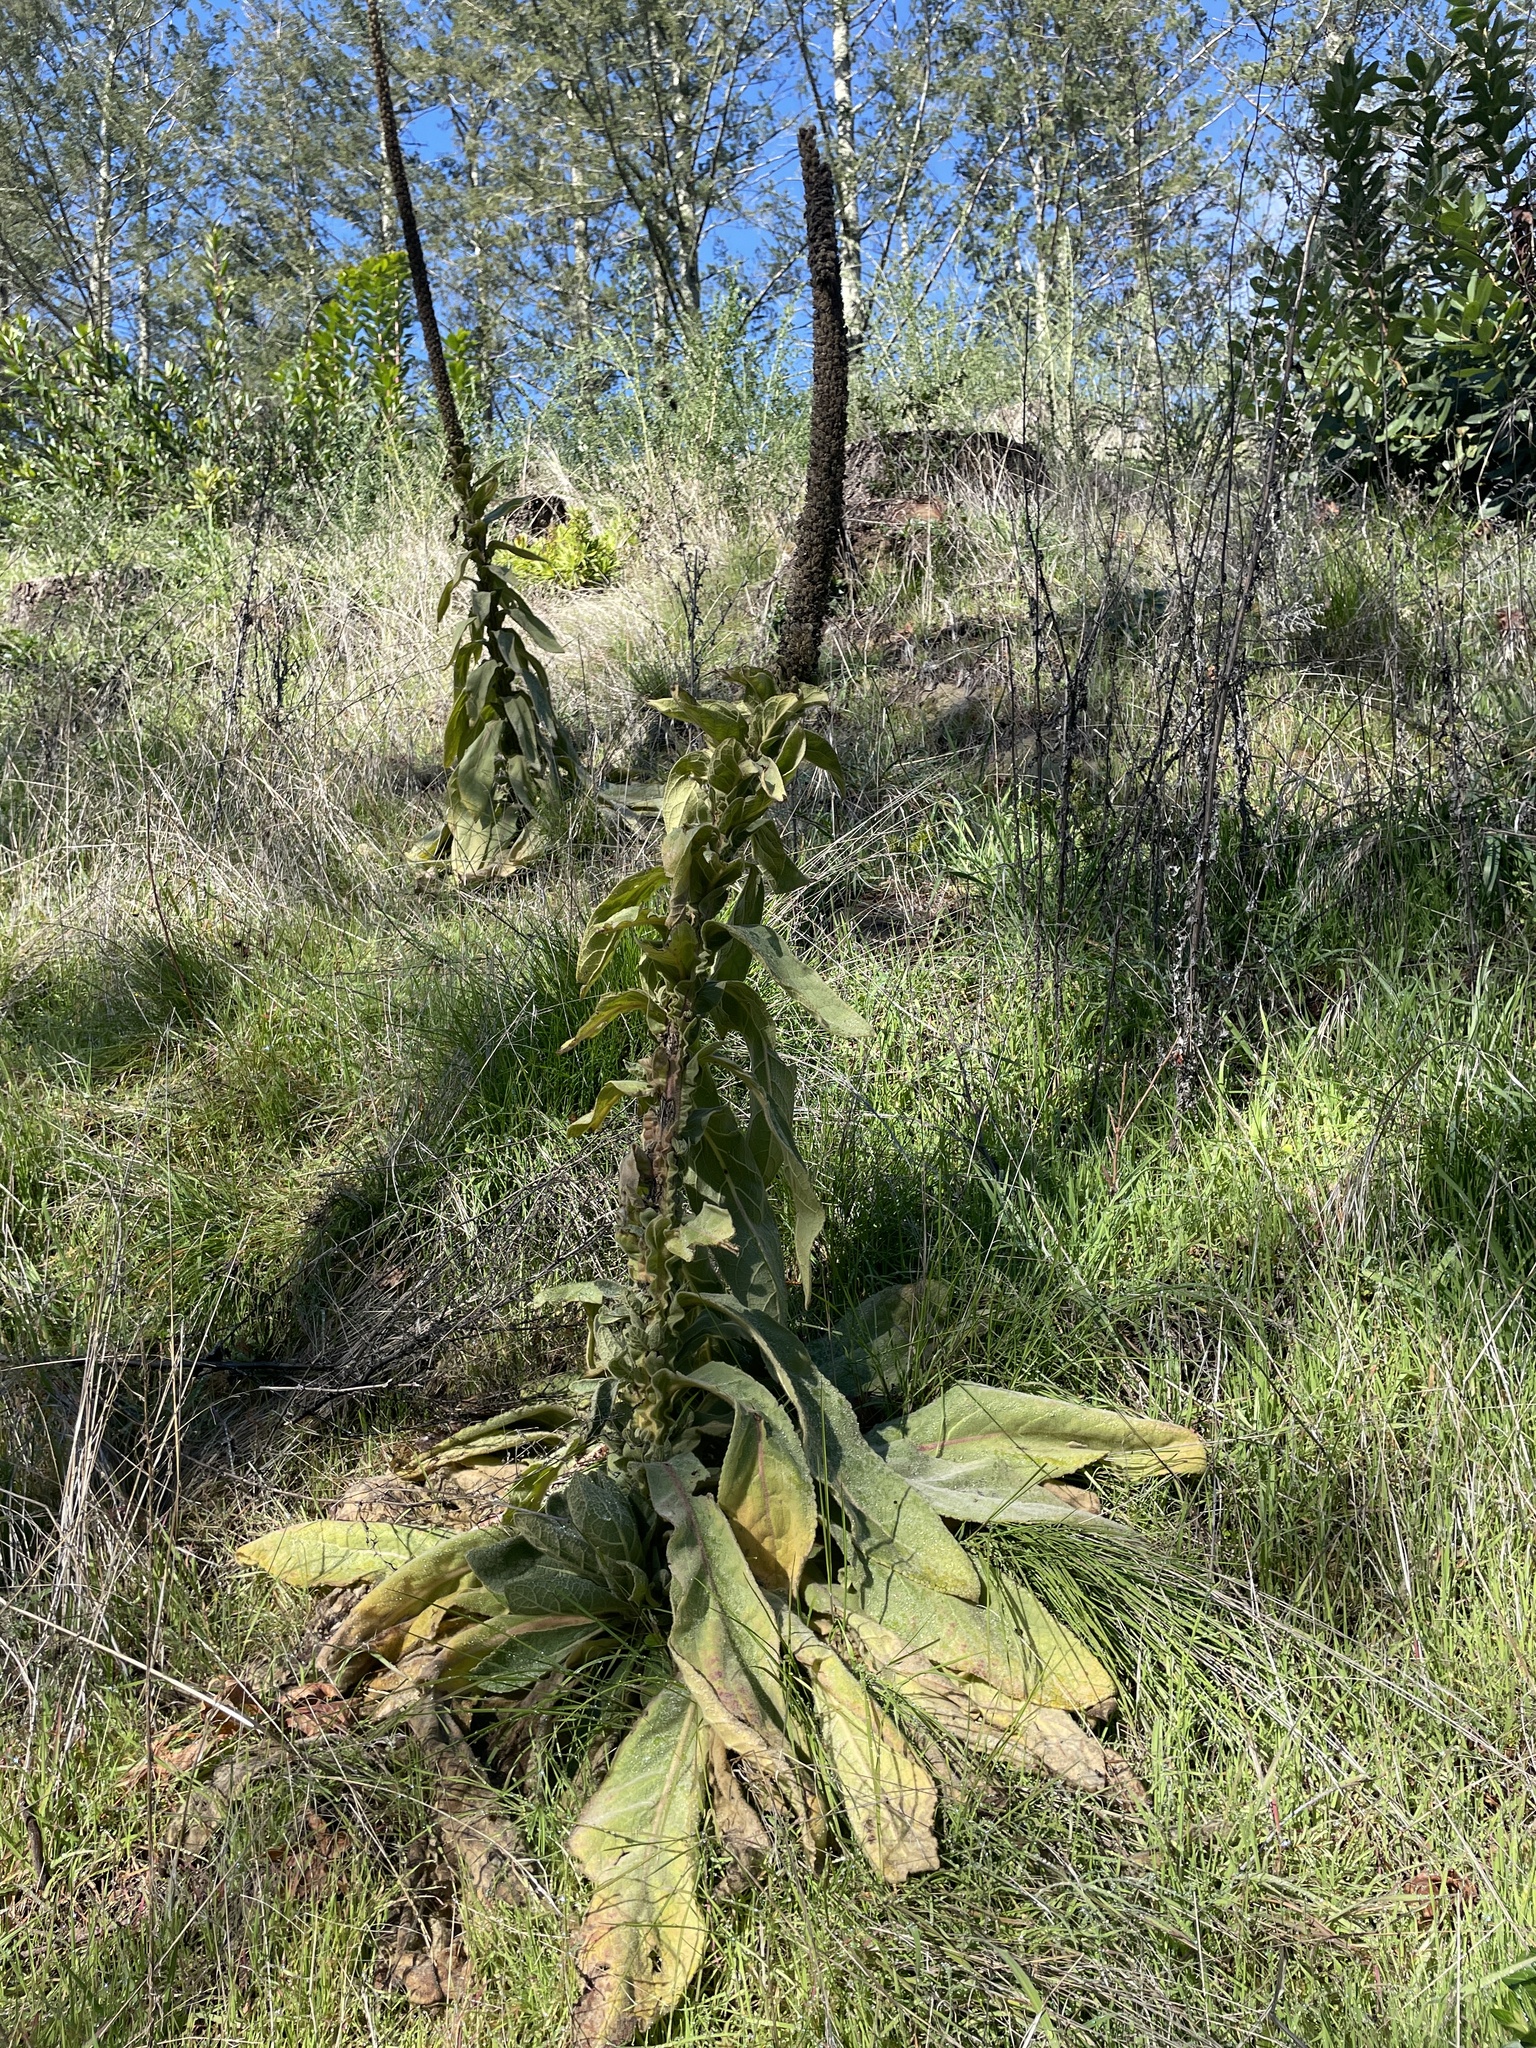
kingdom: Plantae
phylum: Tracheophyta
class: Magnoliopsida
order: Lamiales
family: Scrophulariaceae
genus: Verbascum
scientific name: Verbascum thapsus
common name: Common mullein
